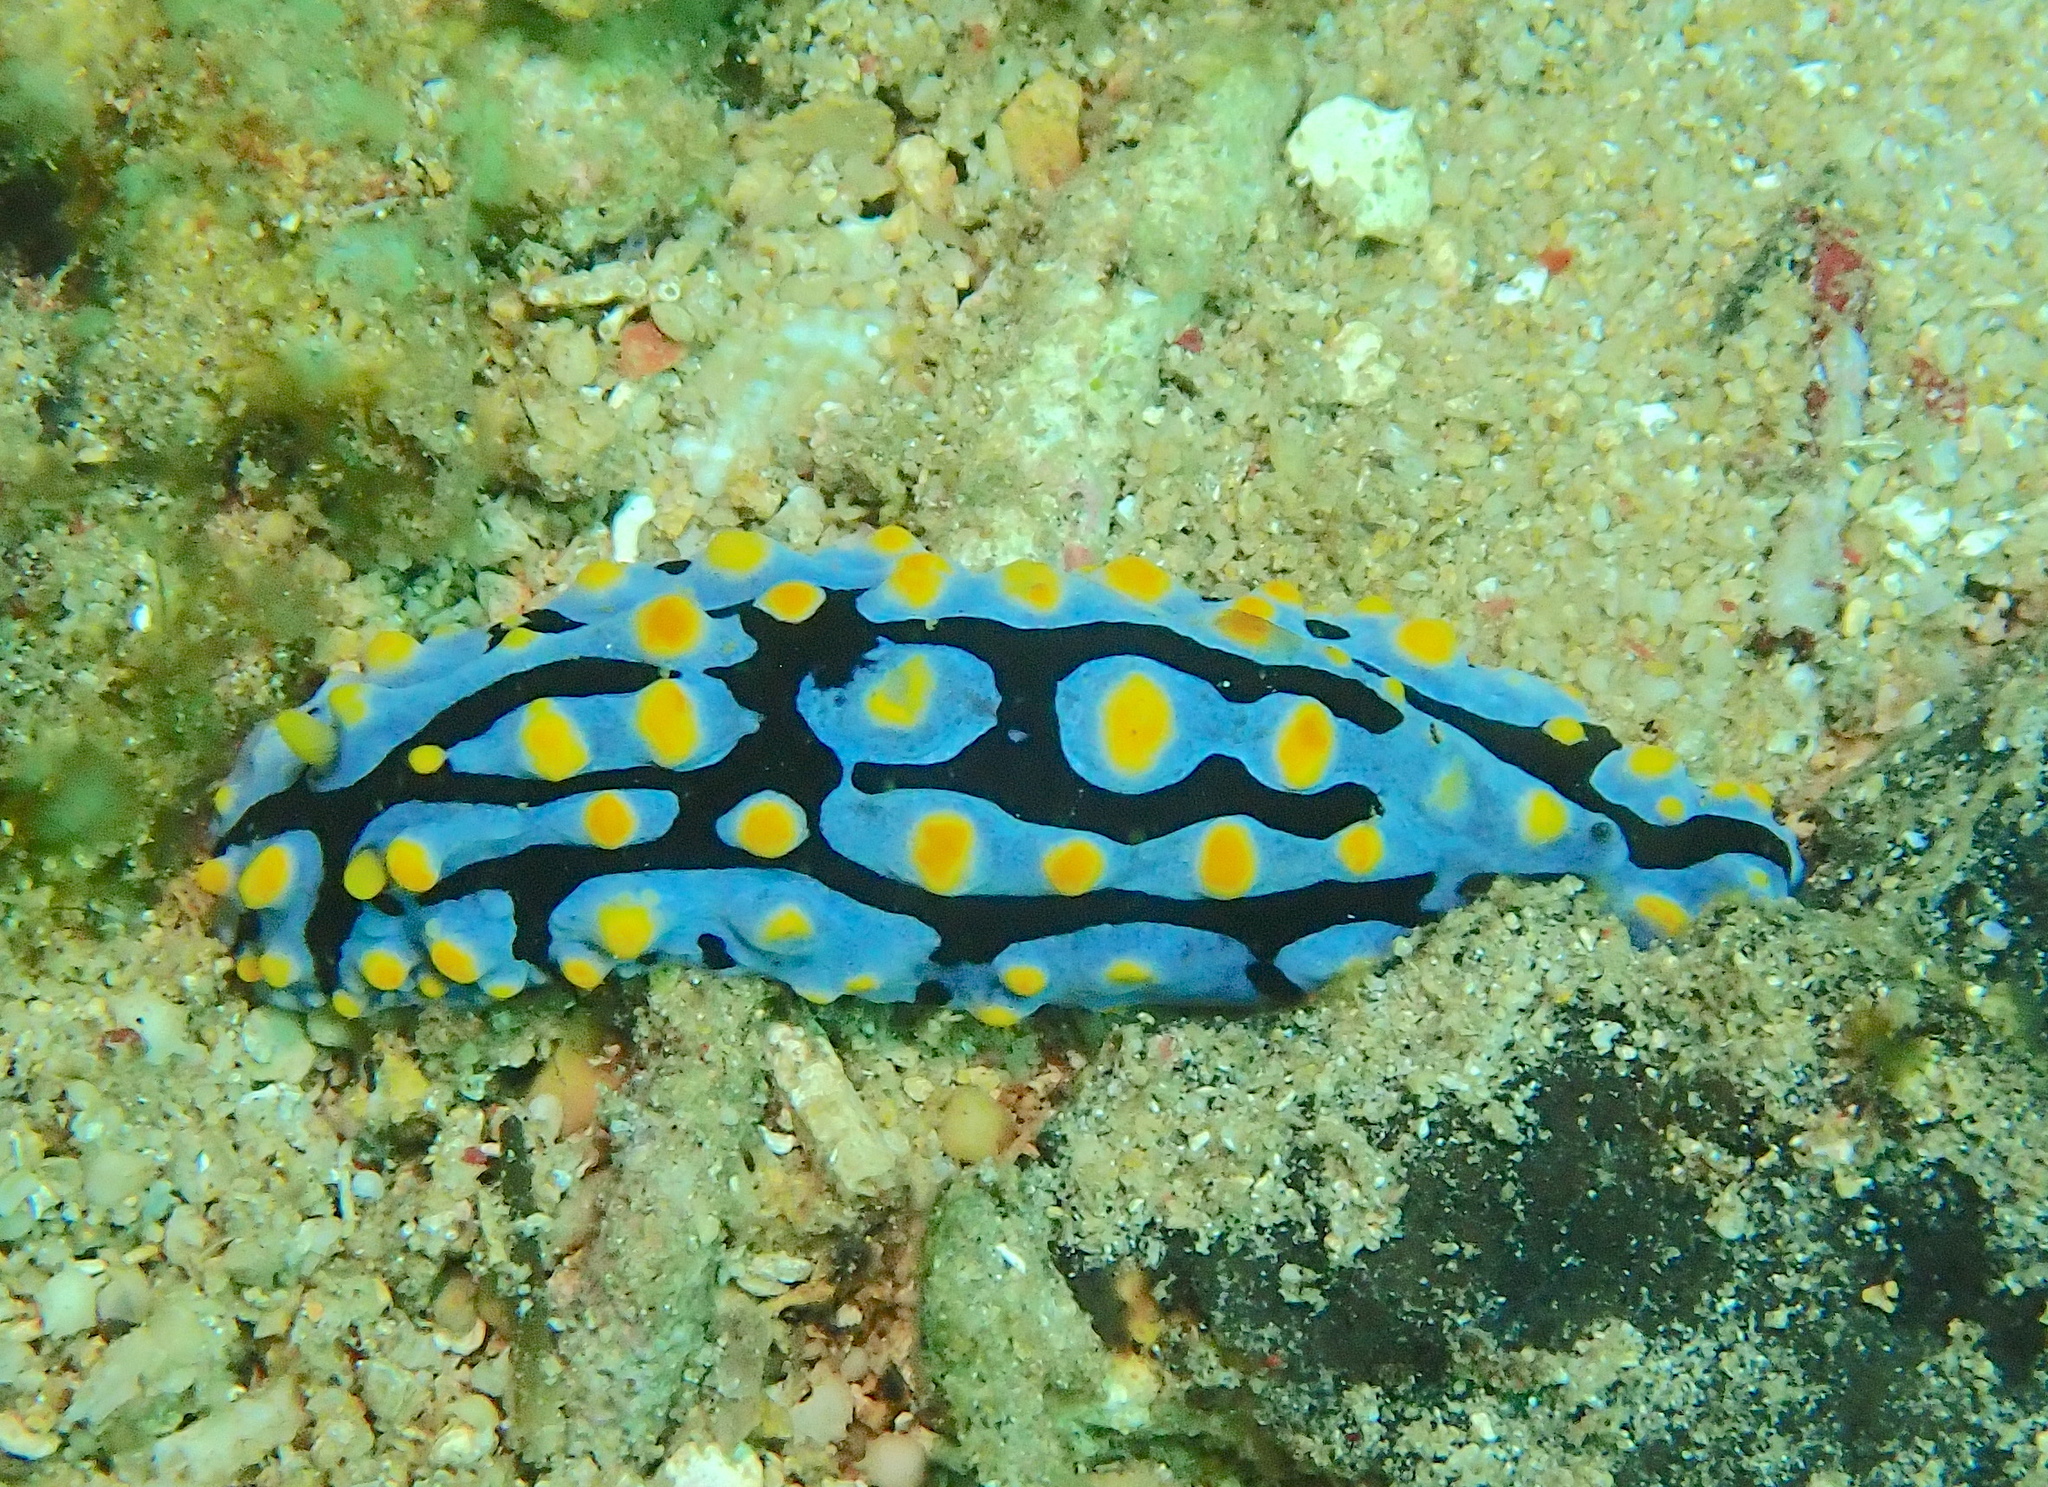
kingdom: Animalia
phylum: Mollusca
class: Gastropoda
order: Nudibranchia
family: Phyllidiidae
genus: Phyllidia
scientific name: Phyllidia varicosa
